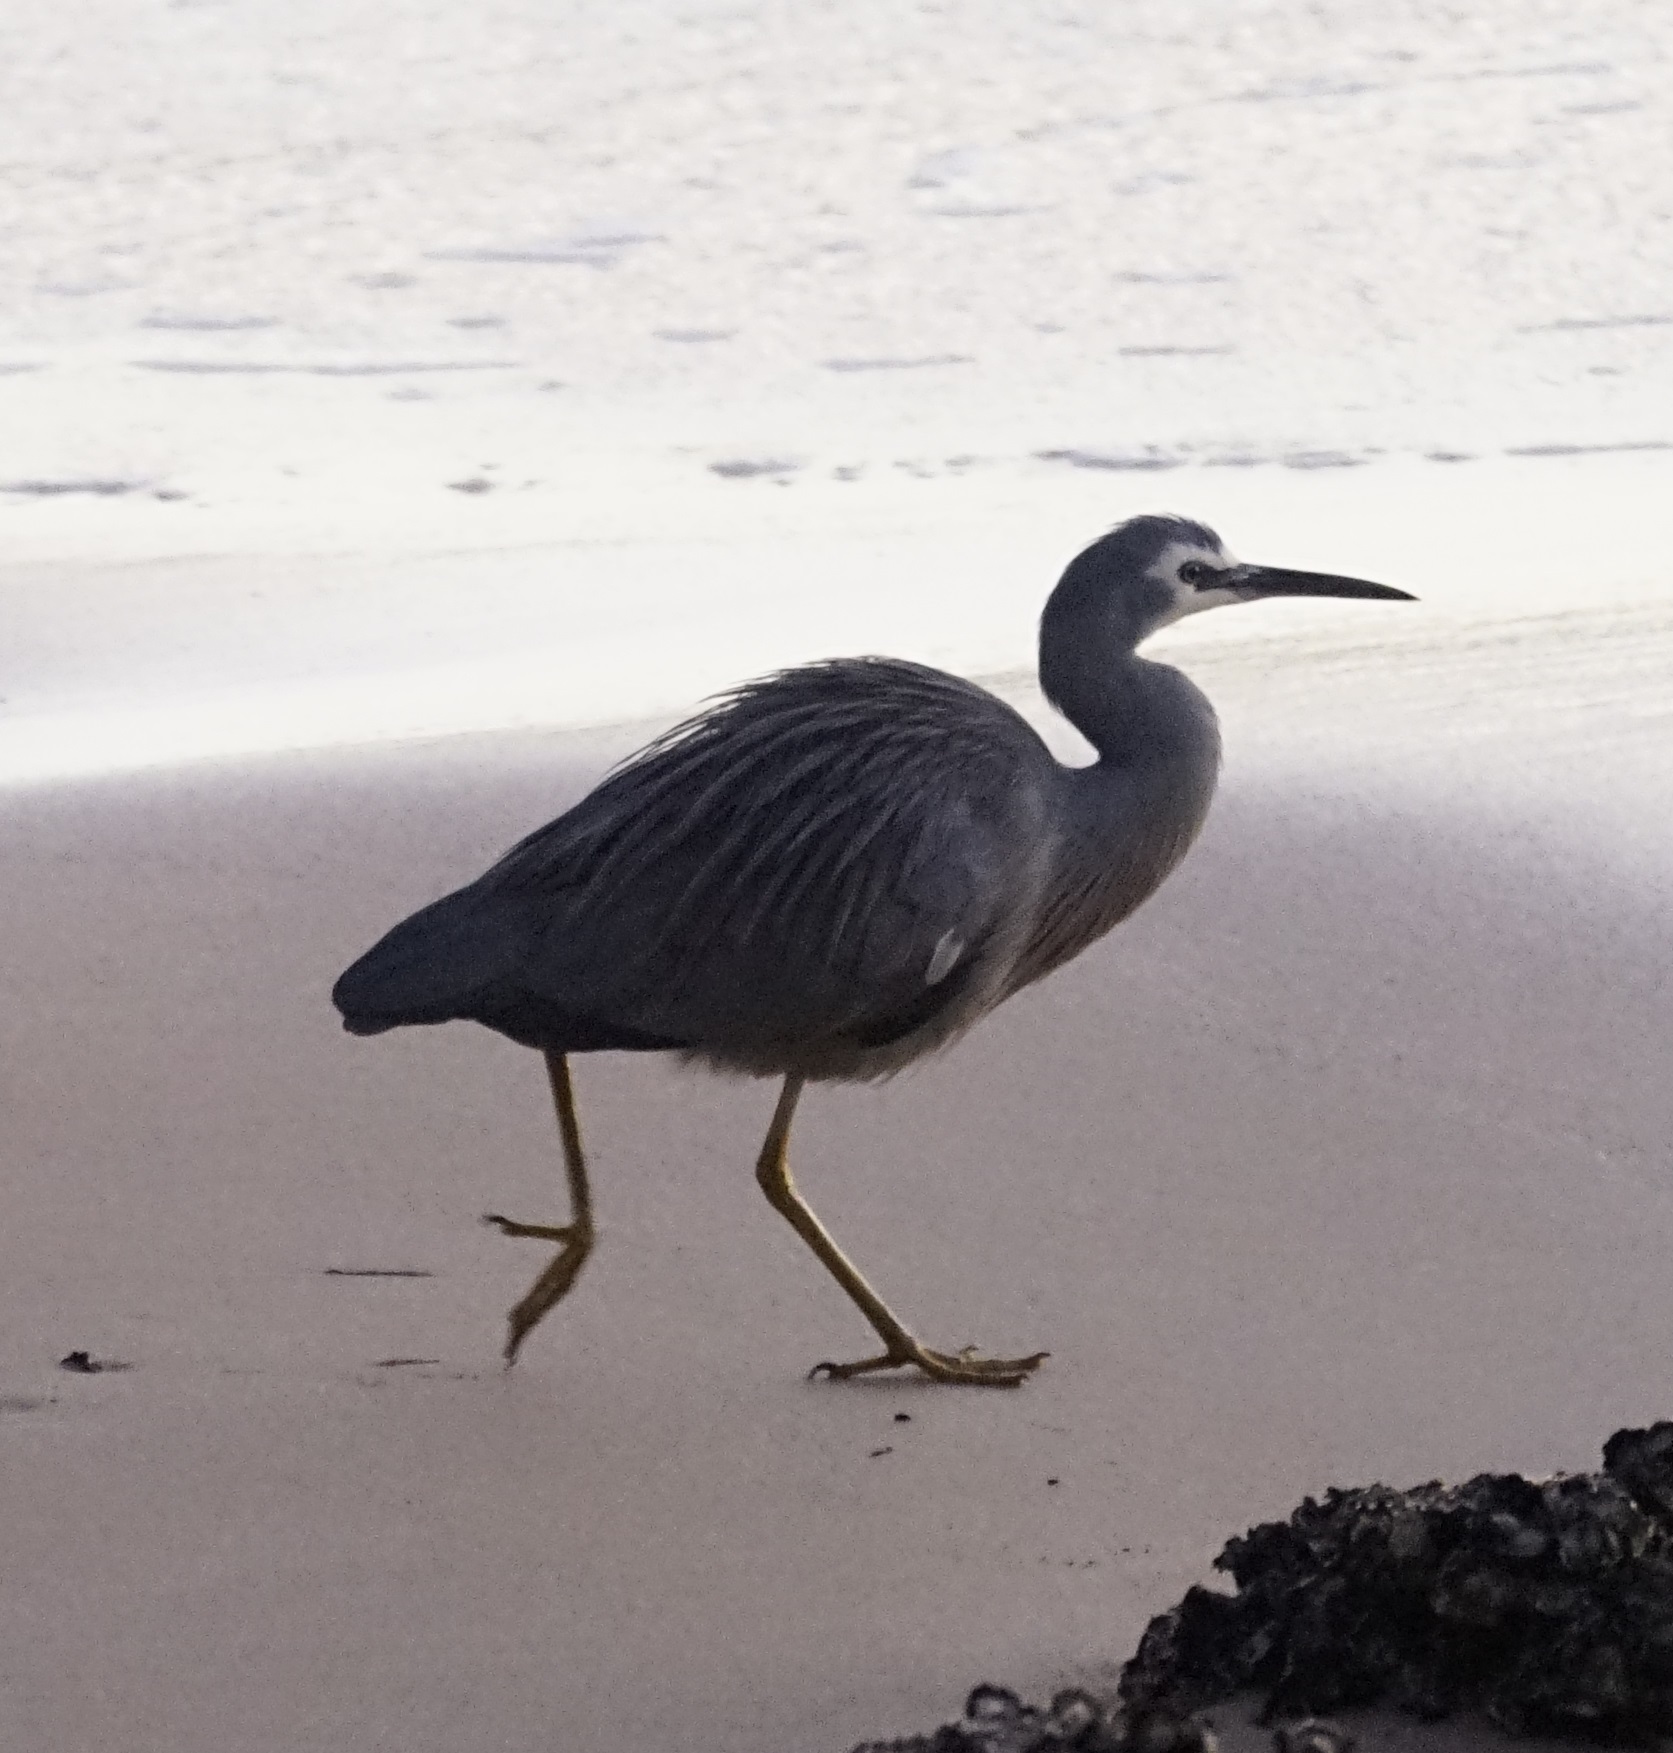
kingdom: Animalia
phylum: Chordata
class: Aves
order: Pelecaniformes
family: Ardeidae
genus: Egretta
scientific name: Egretta novaehollandiae
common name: White-faced heron
